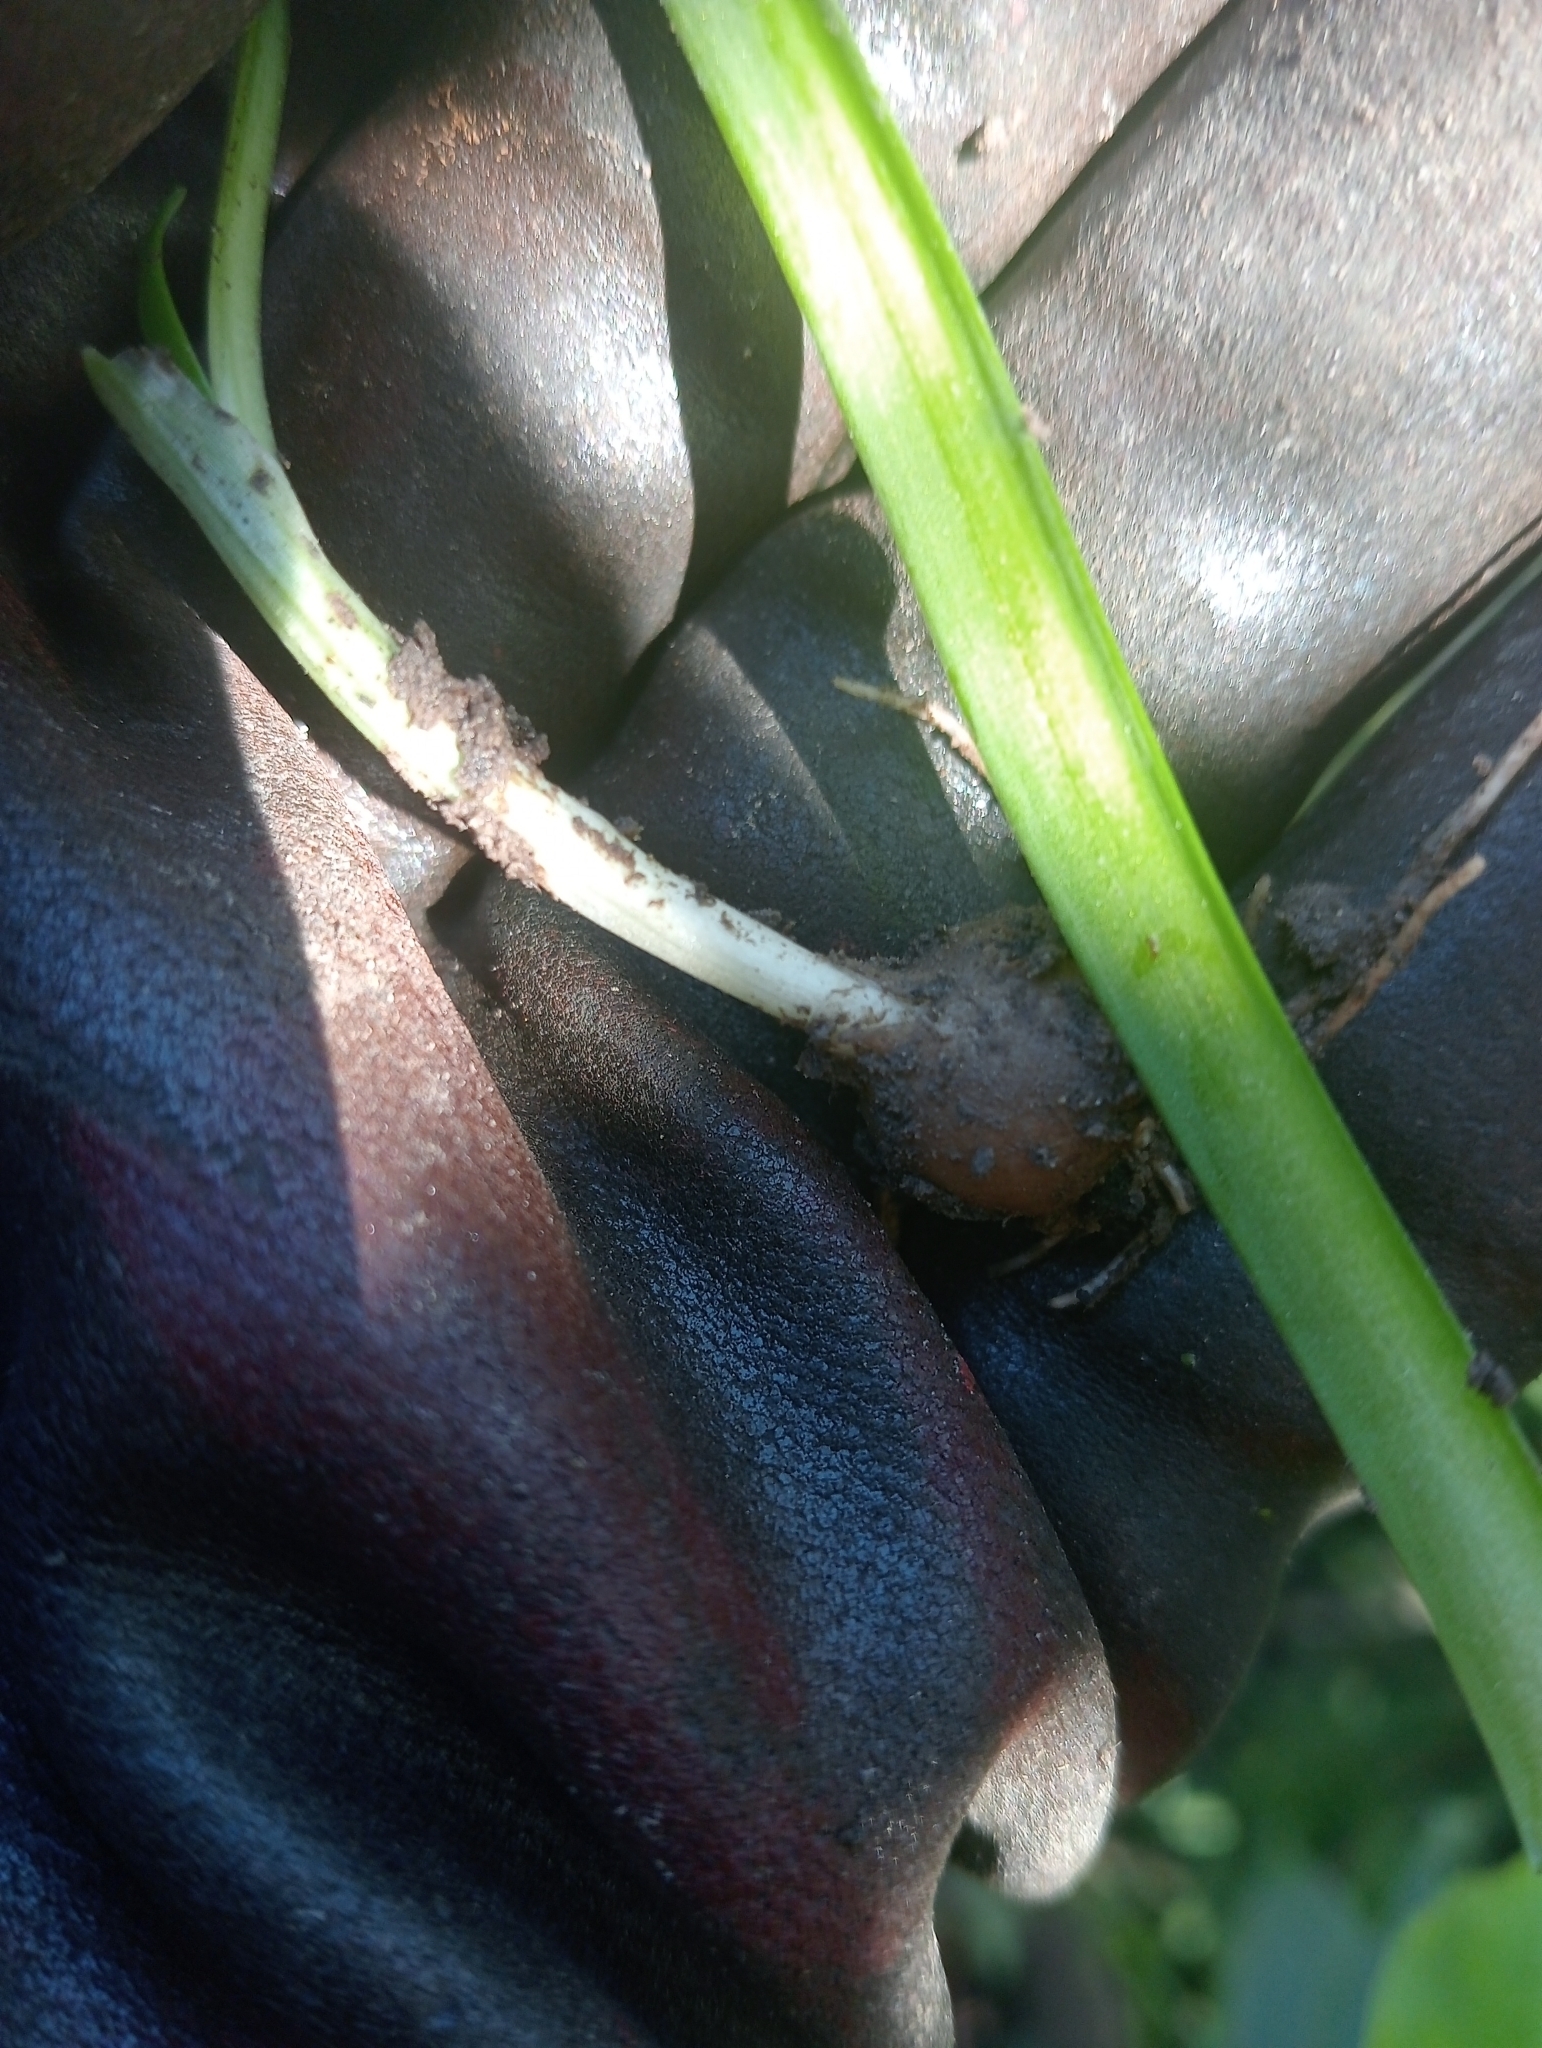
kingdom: Plantae
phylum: Tracheophyta
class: Liliopsida
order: Asparagales
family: Amaryllidaceae
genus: Allium
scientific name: Allium triquetrum
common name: Three-cornered garlic
